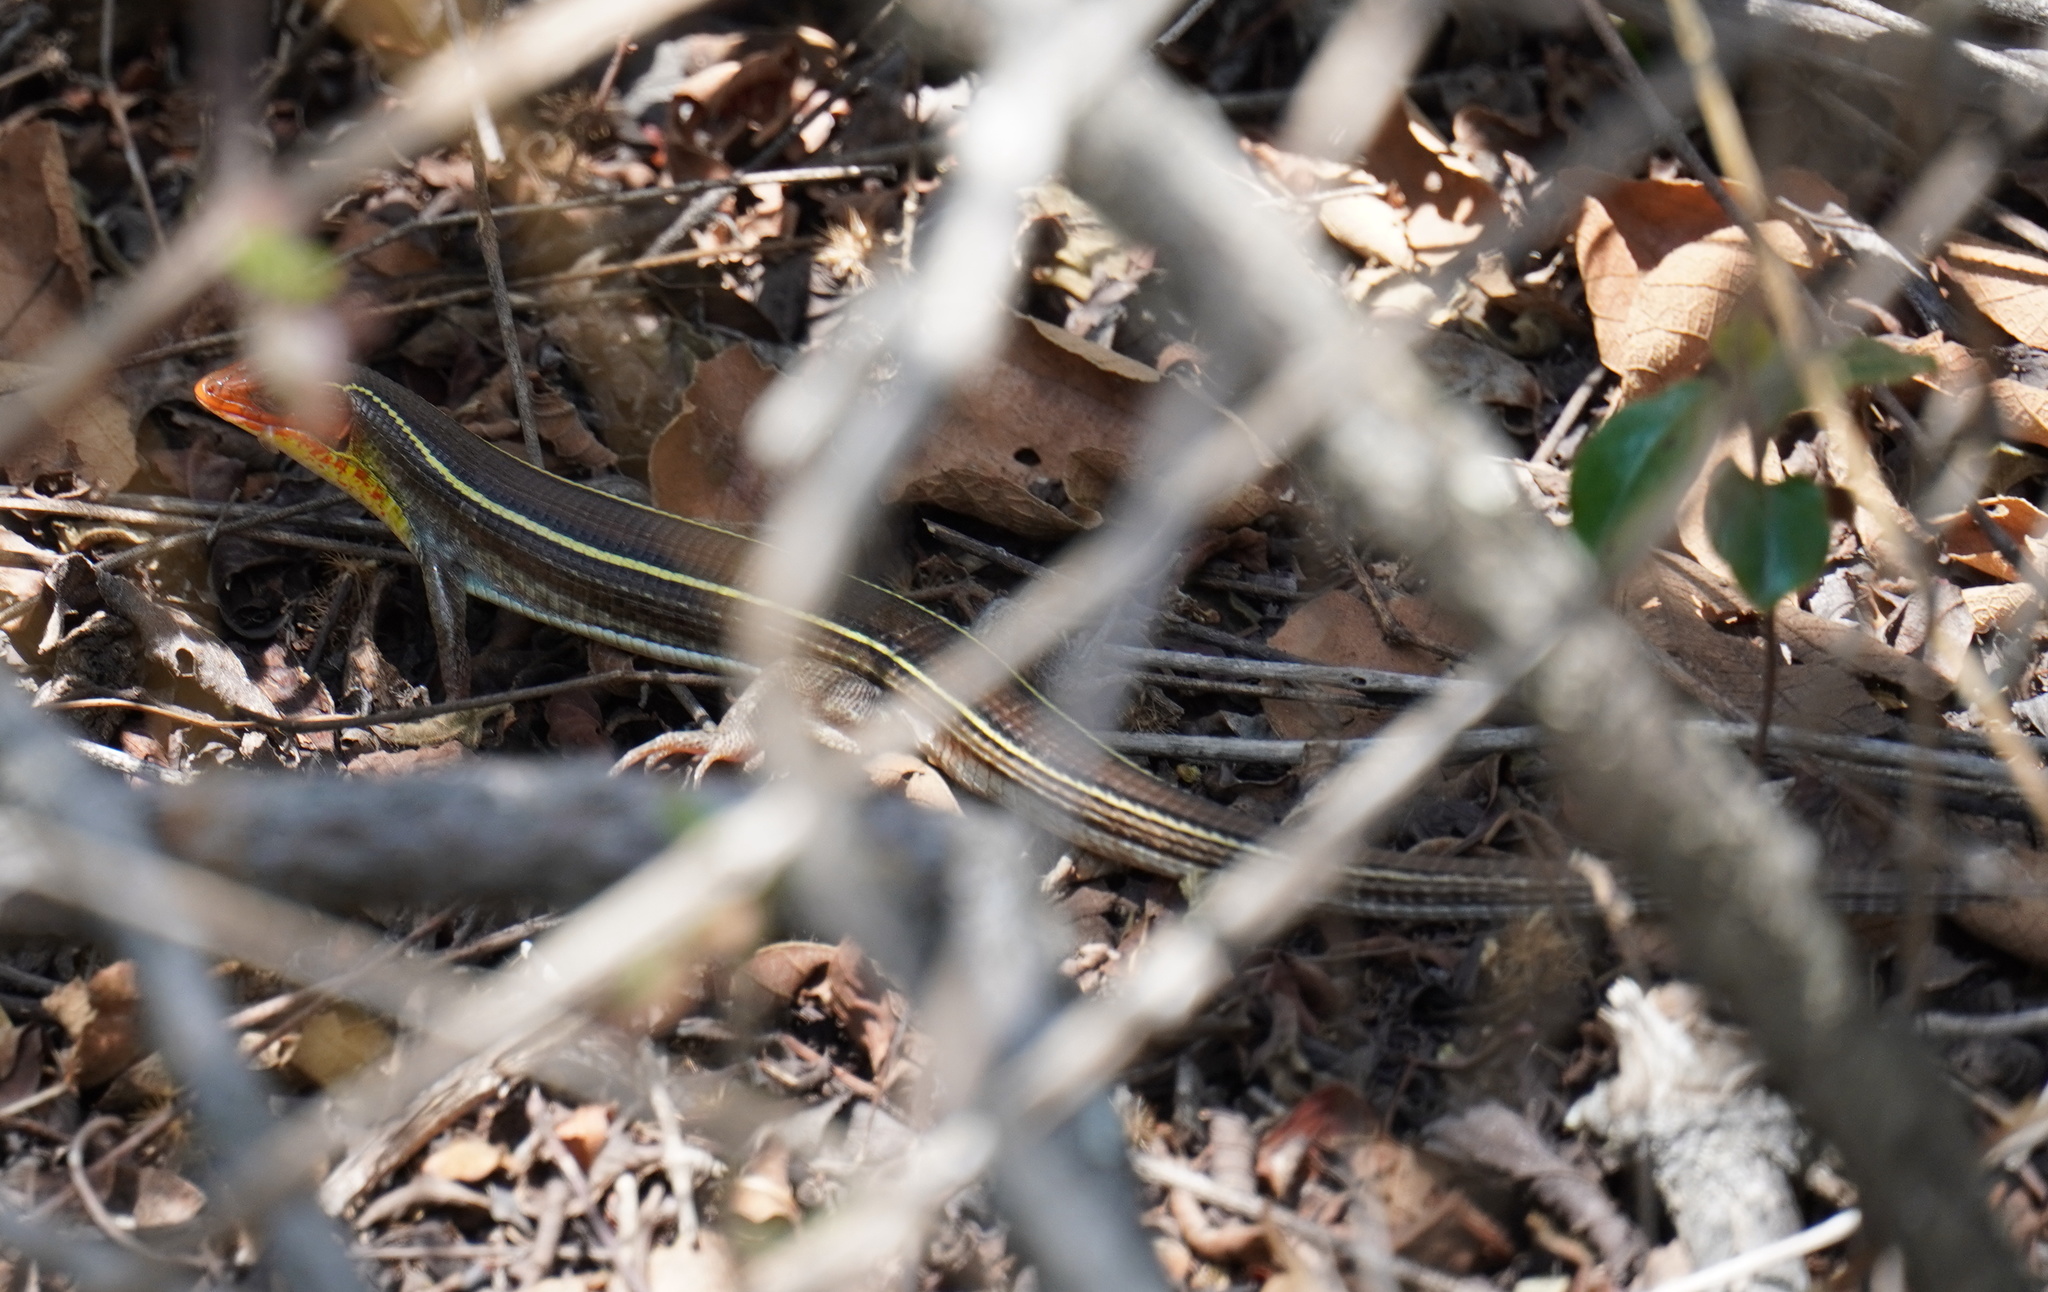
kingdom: Animalia
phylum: Chordata
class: Squamata
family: Gerrhosauridae
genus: Gerrhosaurus
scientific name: Gerrhosaurus flavigularis
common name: Yellow-throated plated lizard
